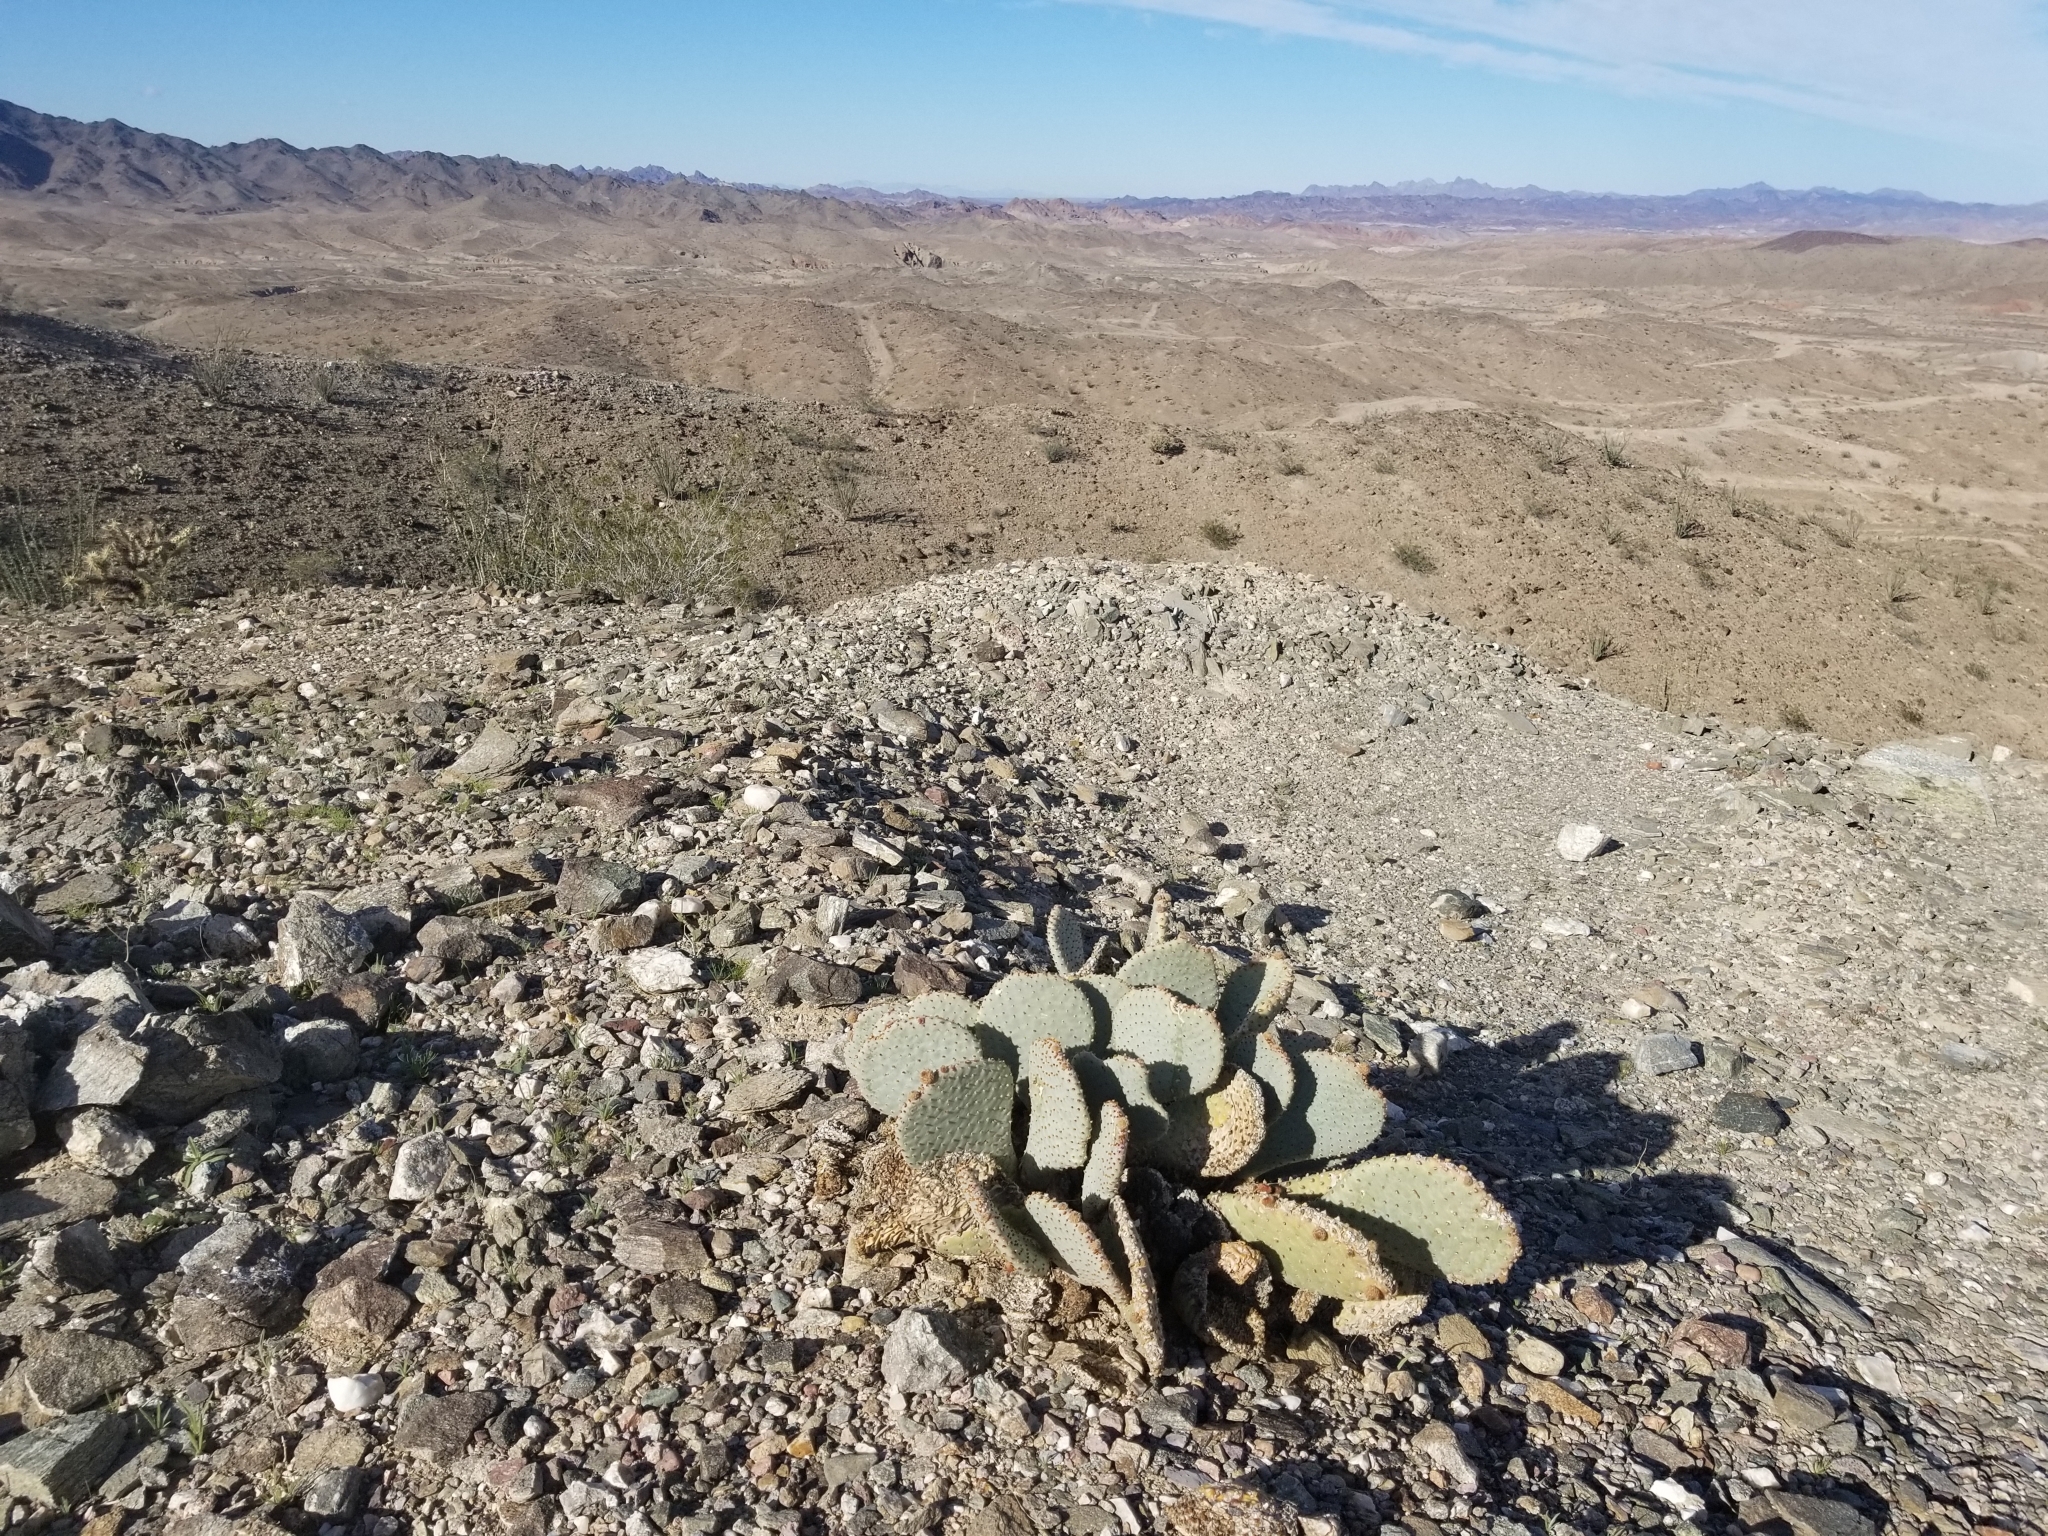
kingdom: Plantae
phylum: Tracheophyta
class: Magnoliopsida
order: Caryophyllales
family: Cactaceae
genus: Opuntia
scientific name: Opuntia basilaris
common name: Beavertail prickly-pear
